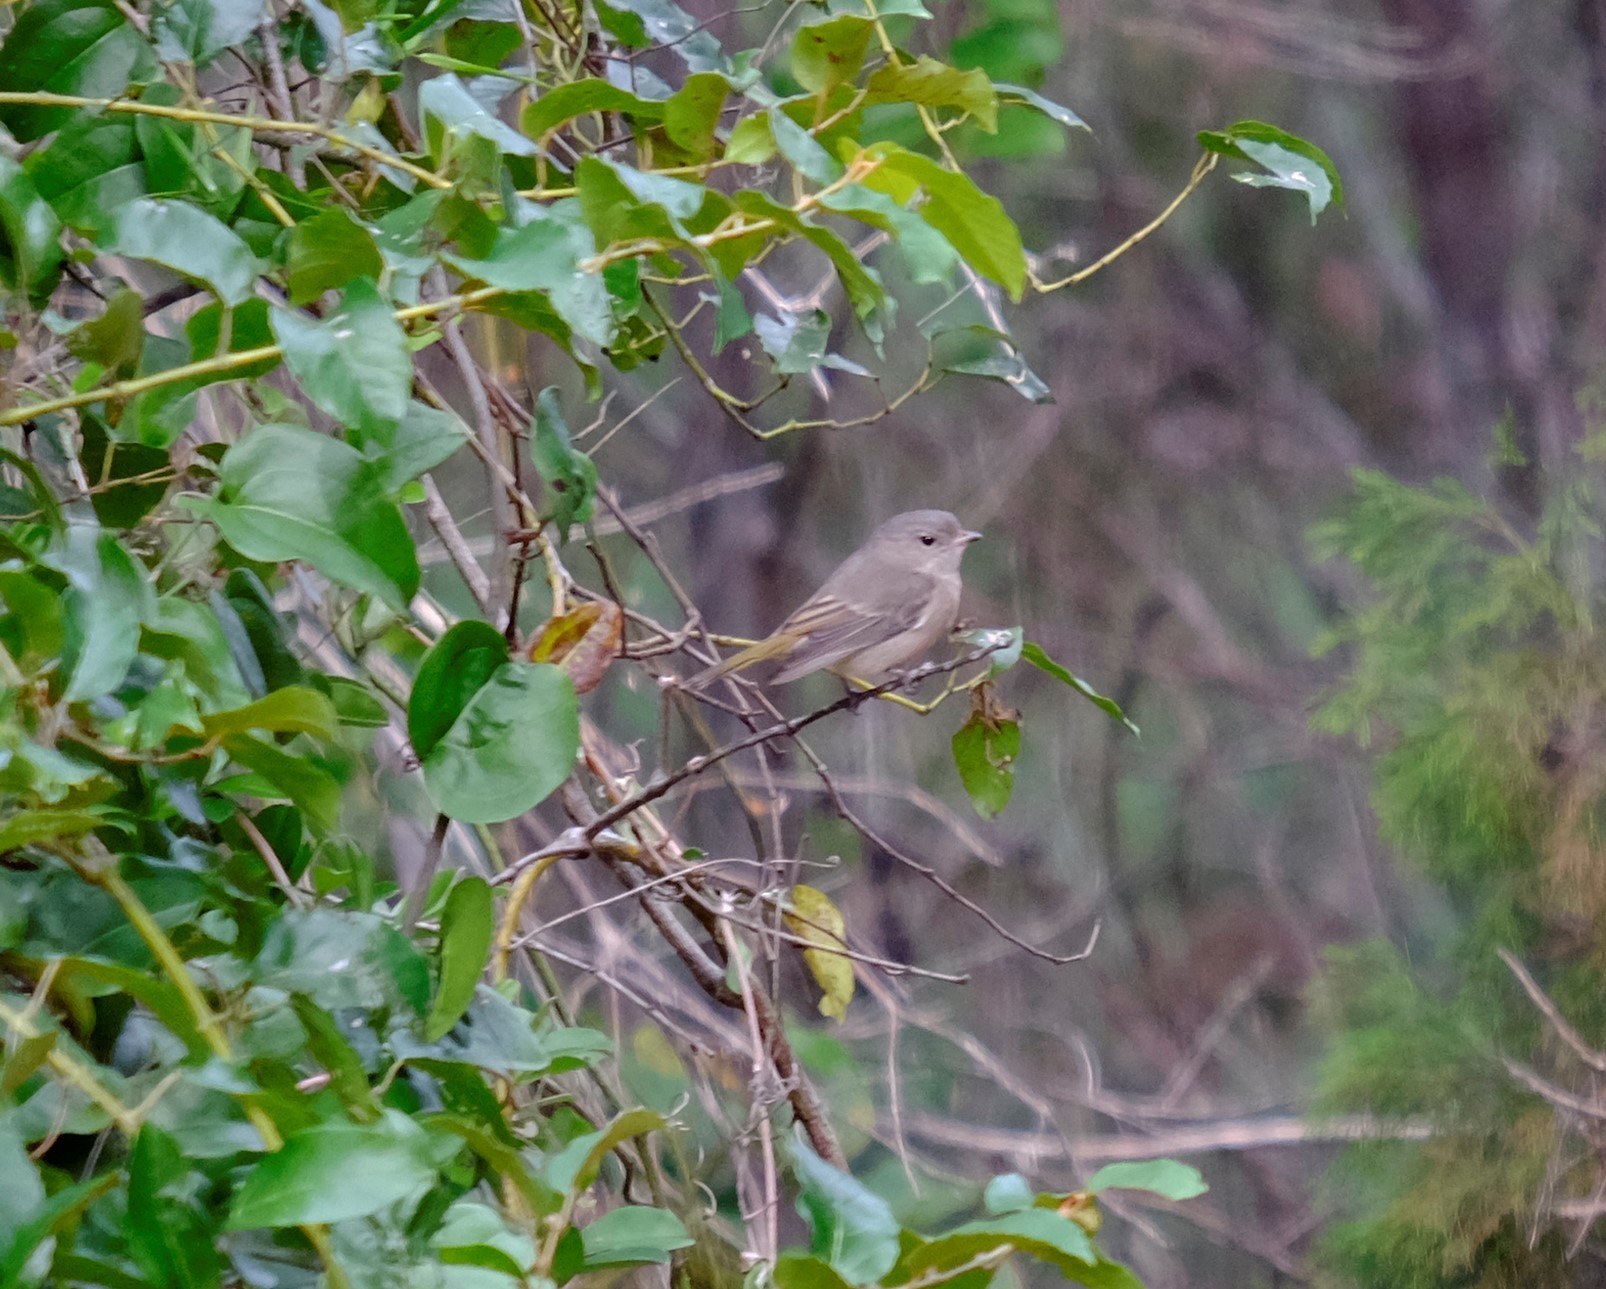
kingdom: Animalia
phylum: Chordata
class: Aves
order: Passeriformes
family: Pachycephalidae
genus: Pachycephala
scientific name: Pachycephala pectoralis
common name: Australian golden whistler
